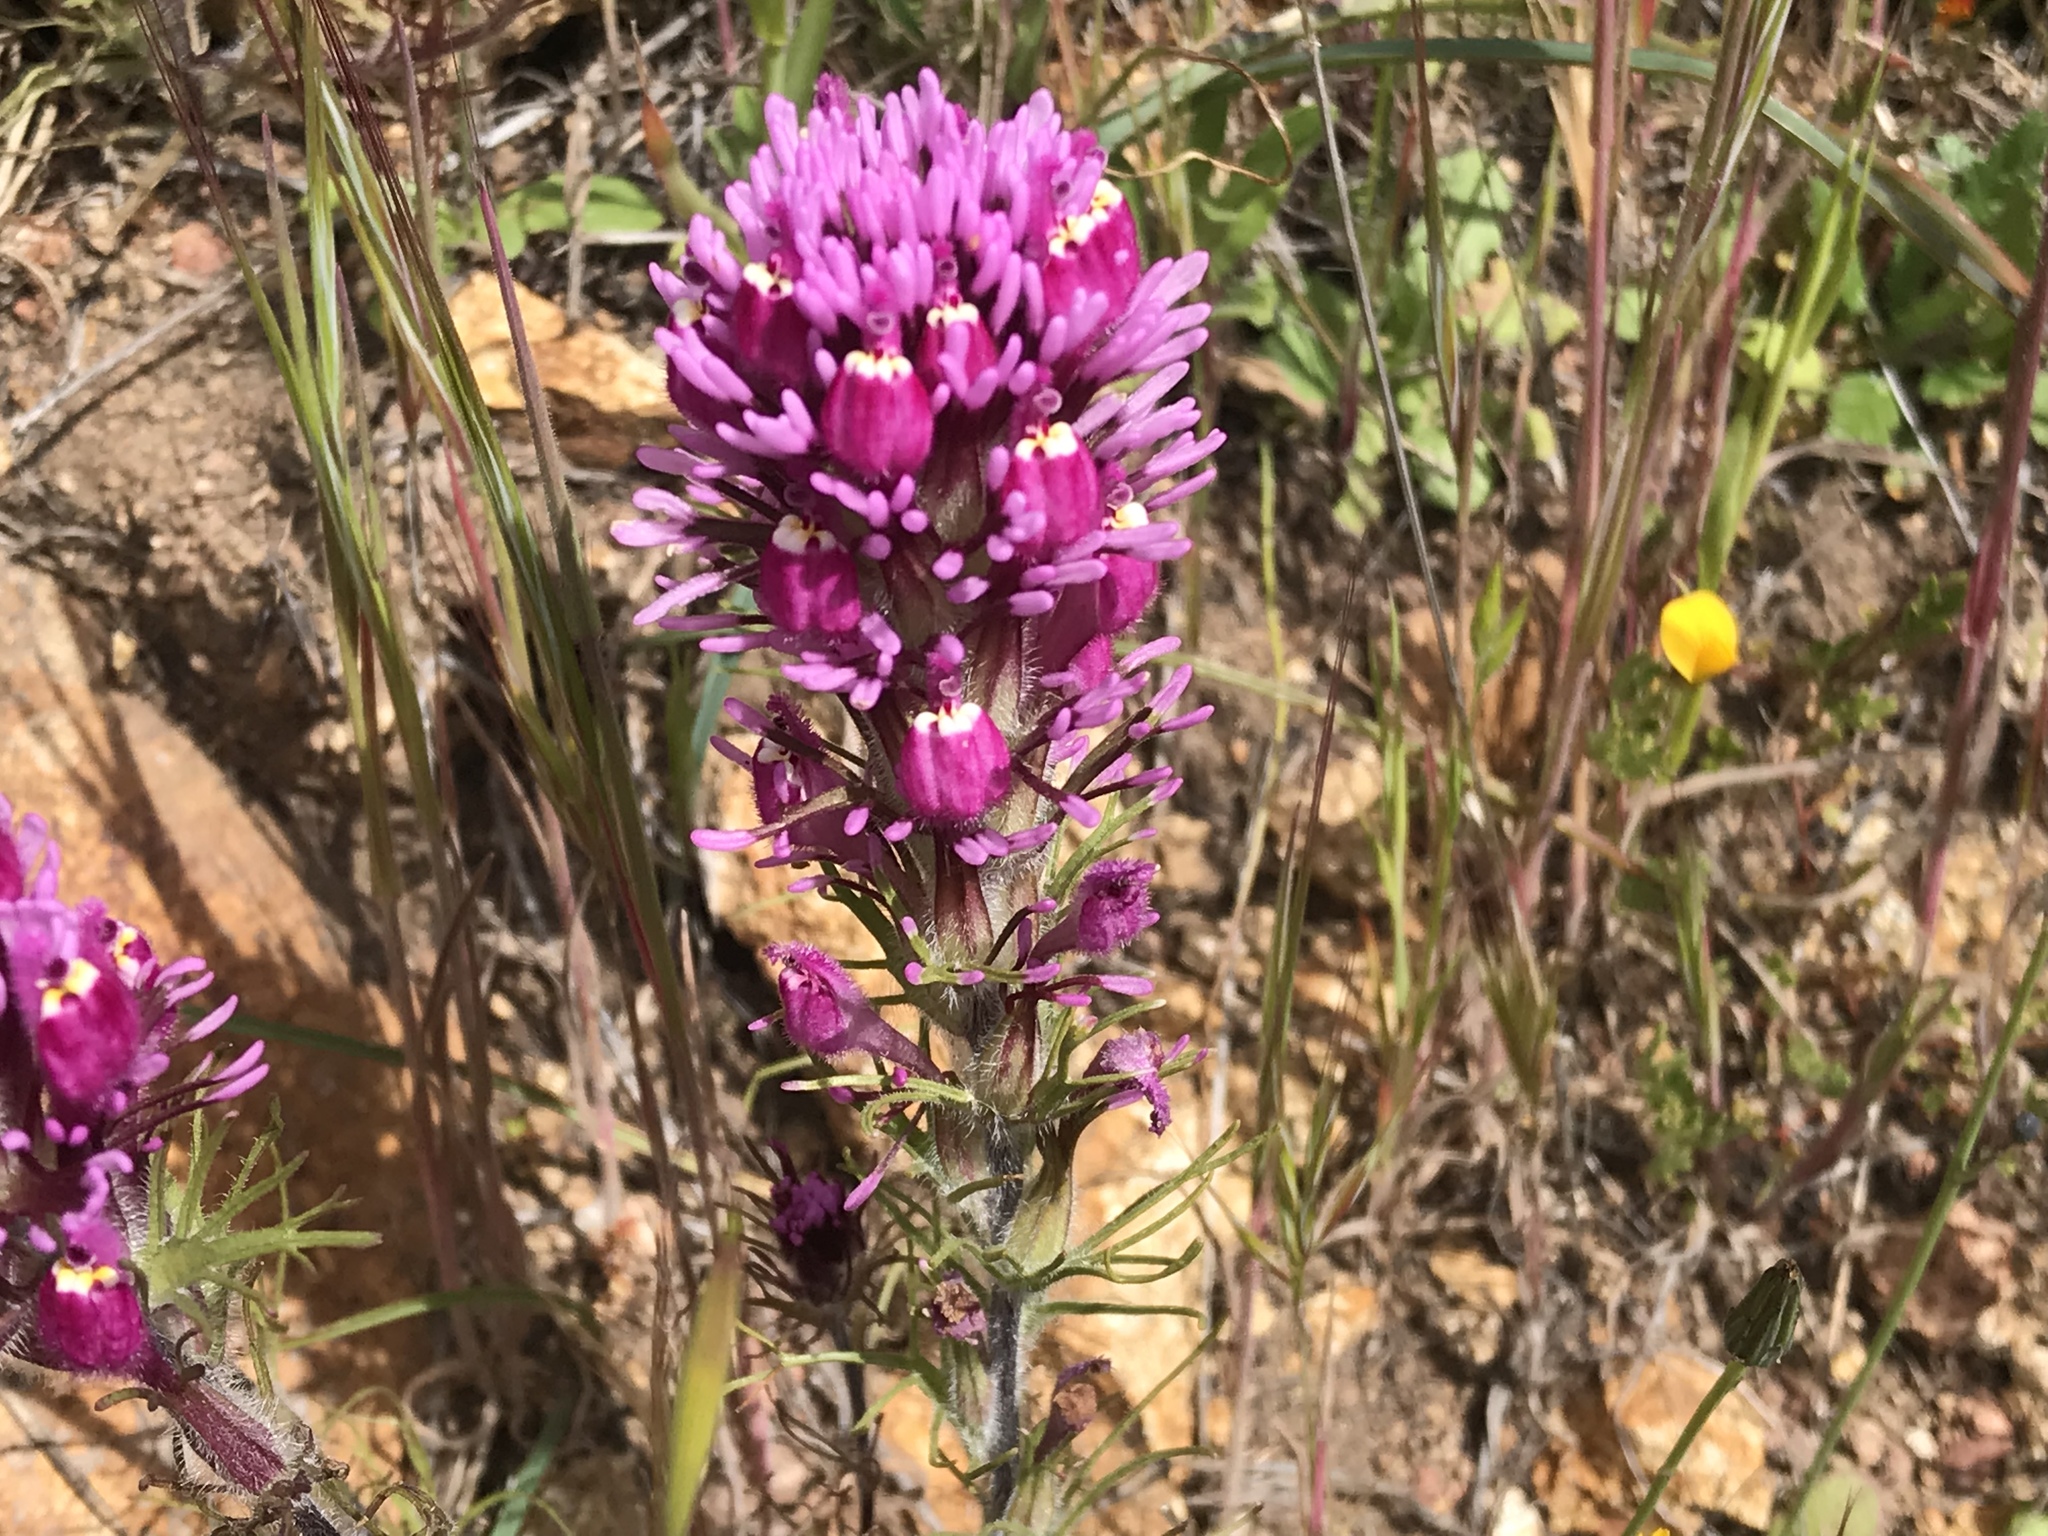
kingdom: Plantae
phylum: Tracheophyta
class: Magnoliopsida
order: Lamiales
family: Orobanchaceae
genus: Castilleja
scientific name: Castilleja exserta
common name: Purple owl-clover
